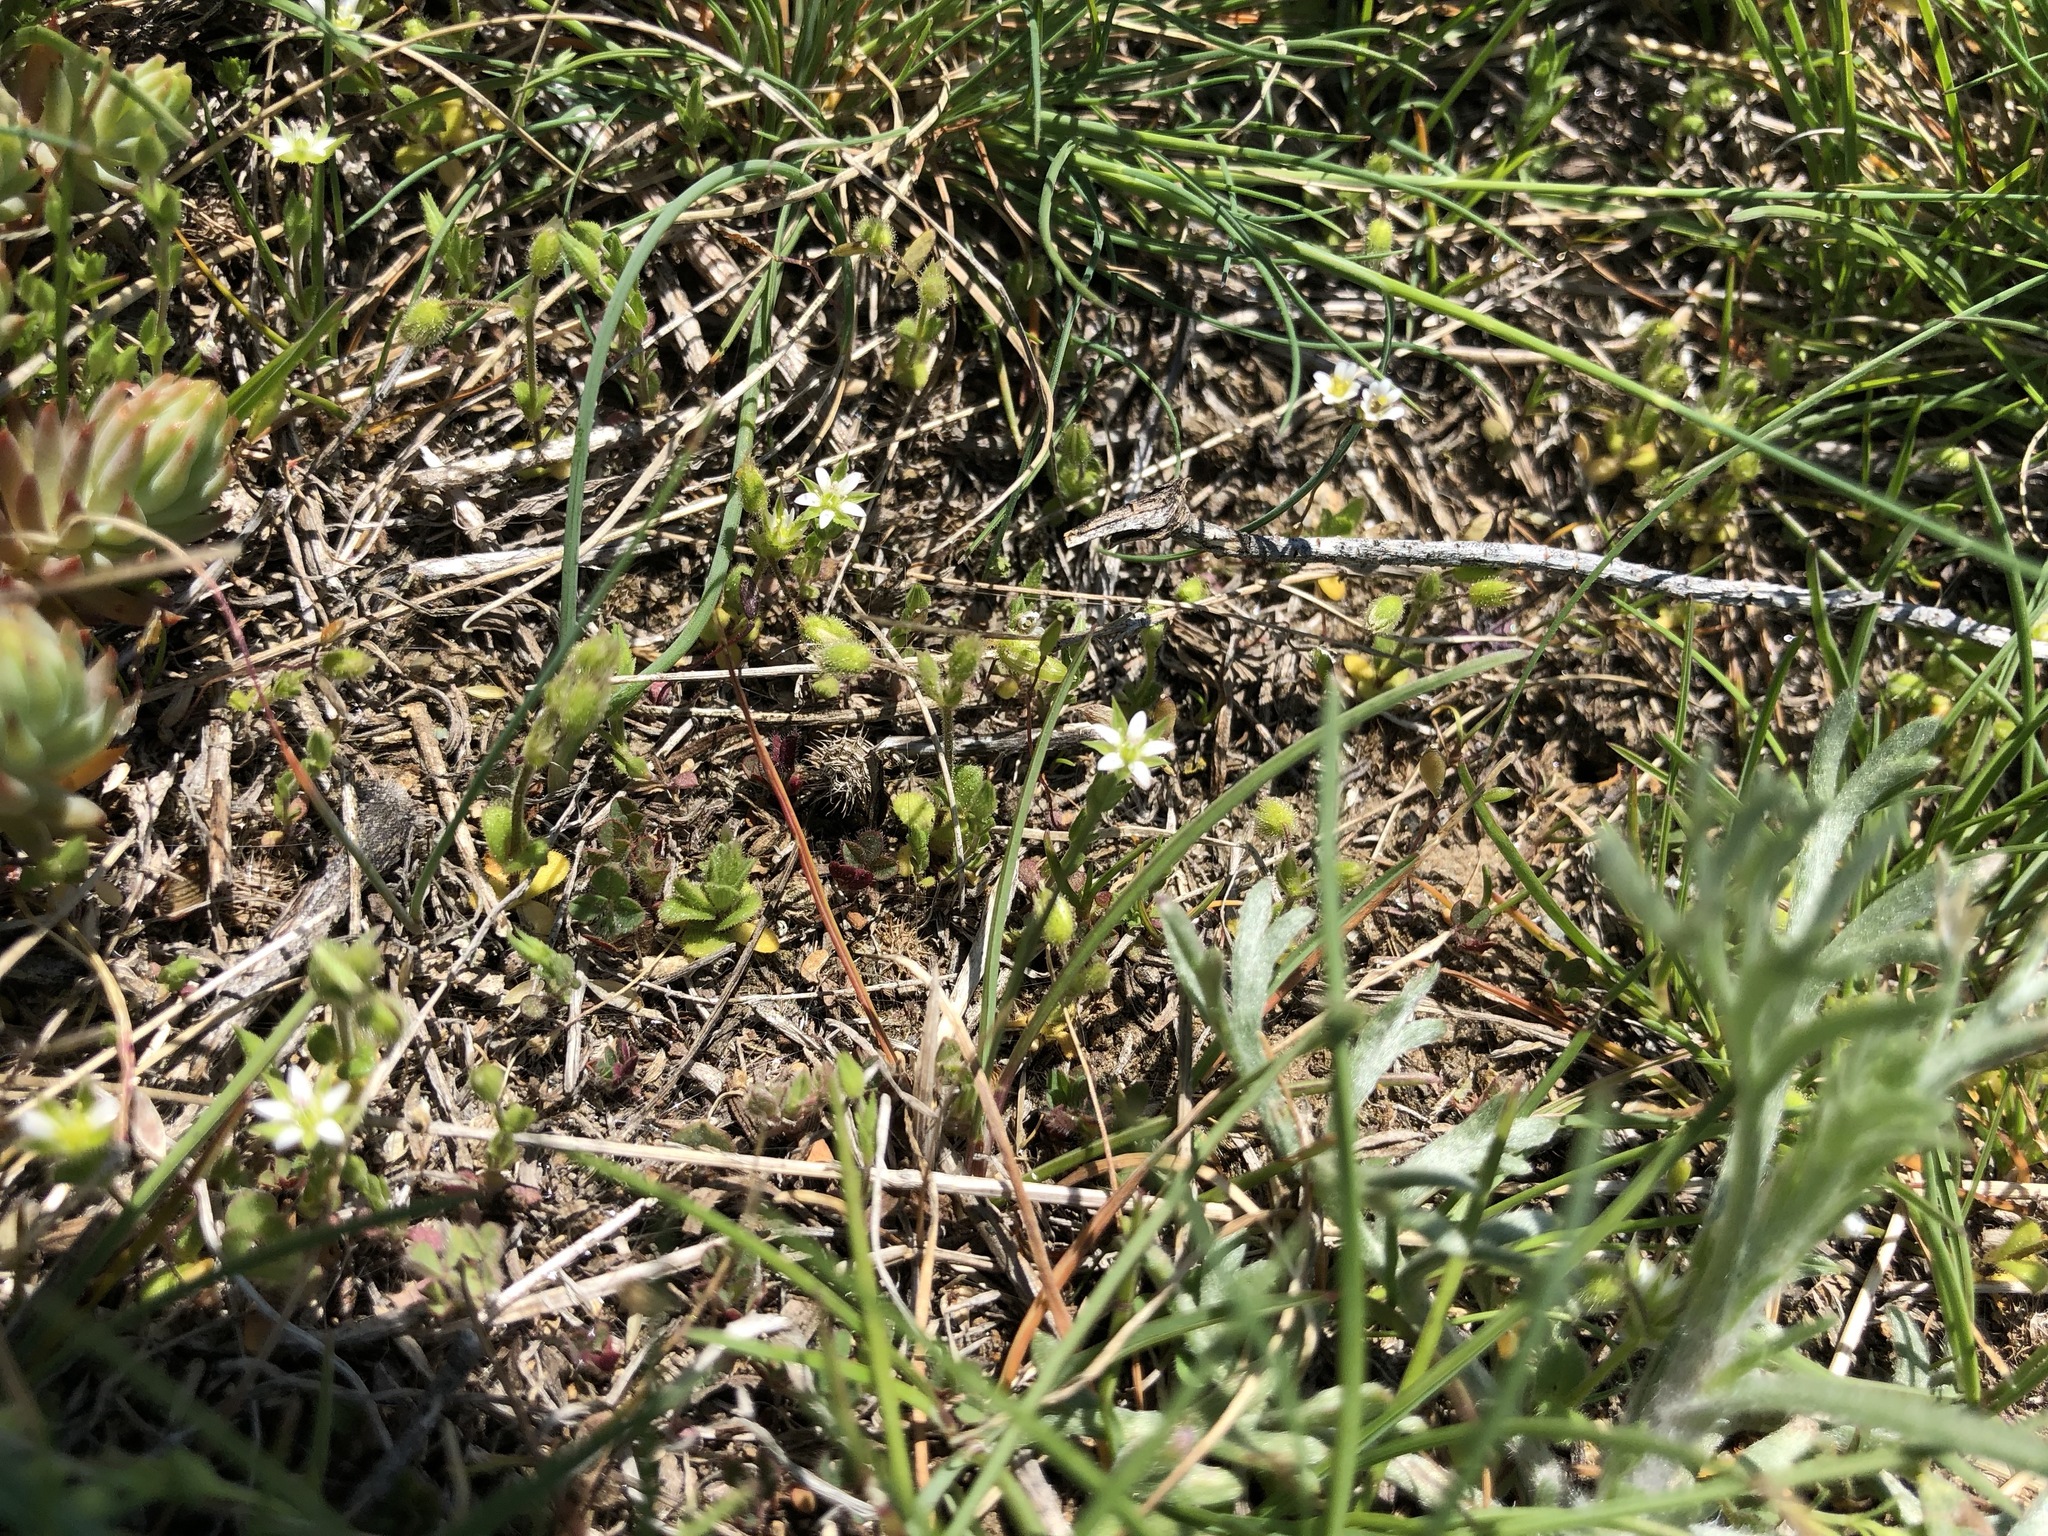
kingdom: Plantae
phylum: Tracheophyta
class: Magnoliopsida
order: Caryophyllales
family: Caryophyllaceae
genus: Arenaria
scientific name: Arenaria serpyllifolia
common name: Thyme-leaved sandwort
